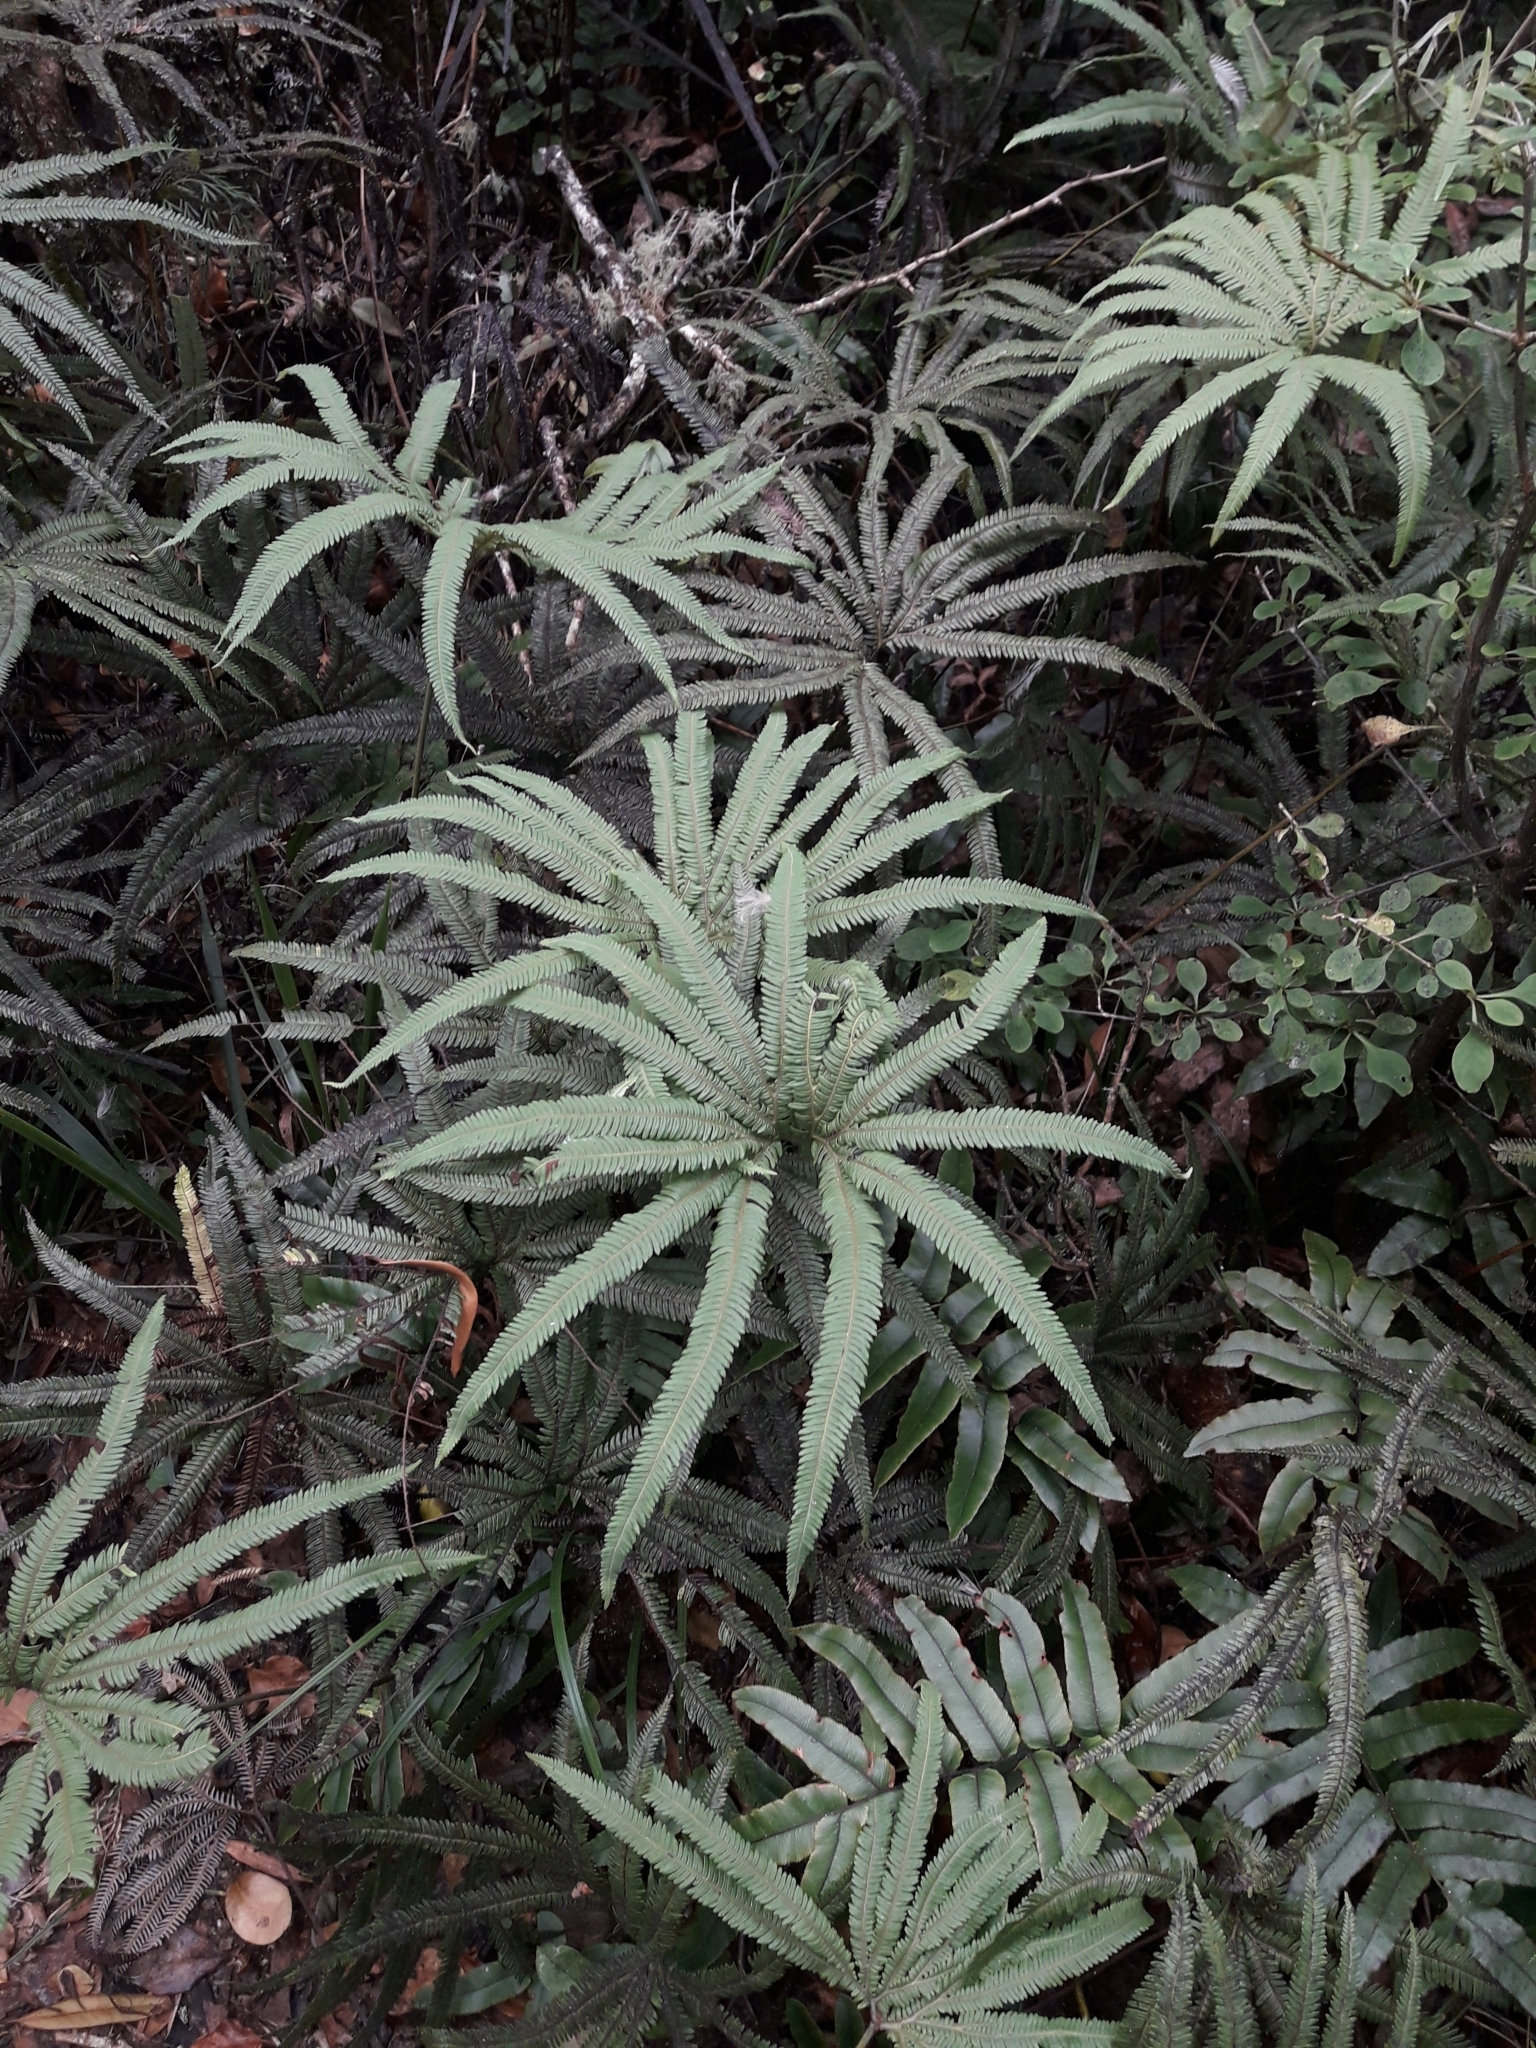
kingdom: Plantae
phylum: Tracheophyta
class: Polypodiopsida
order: Gleicheniales
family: Gleicheniaceae
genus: Sticherus
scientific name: Sticherus cunninghamii
